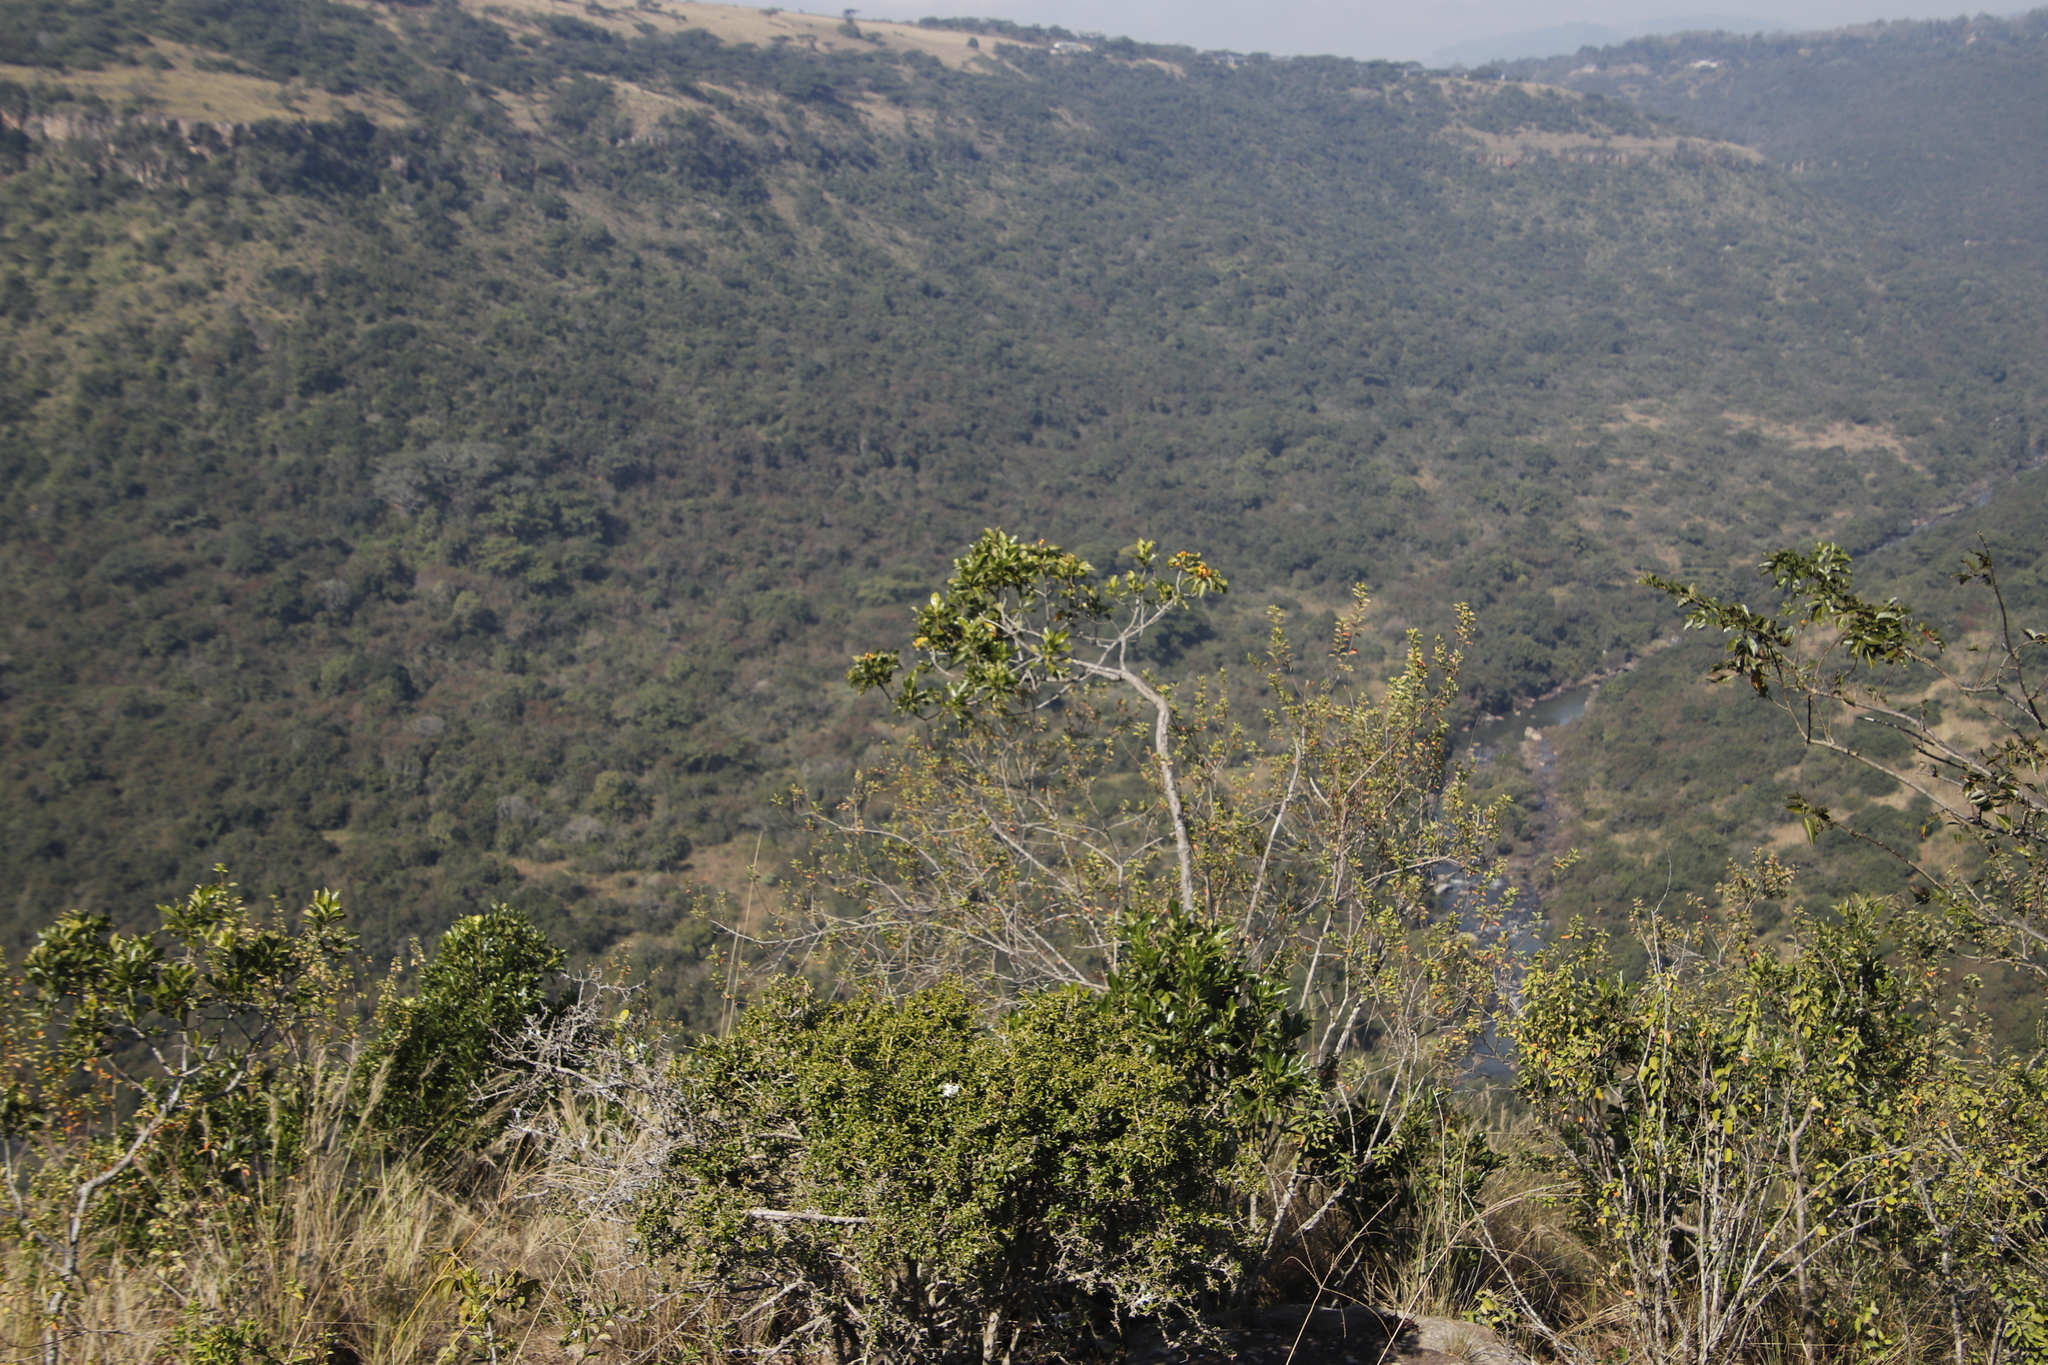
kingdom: Plantae
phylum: Tracheophyta
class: Magnoliopsida
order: Apiales
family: Pittosporaceae
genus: Pittosporum
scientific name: Pittosporum viridiflorum
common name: Cape cheesewood
